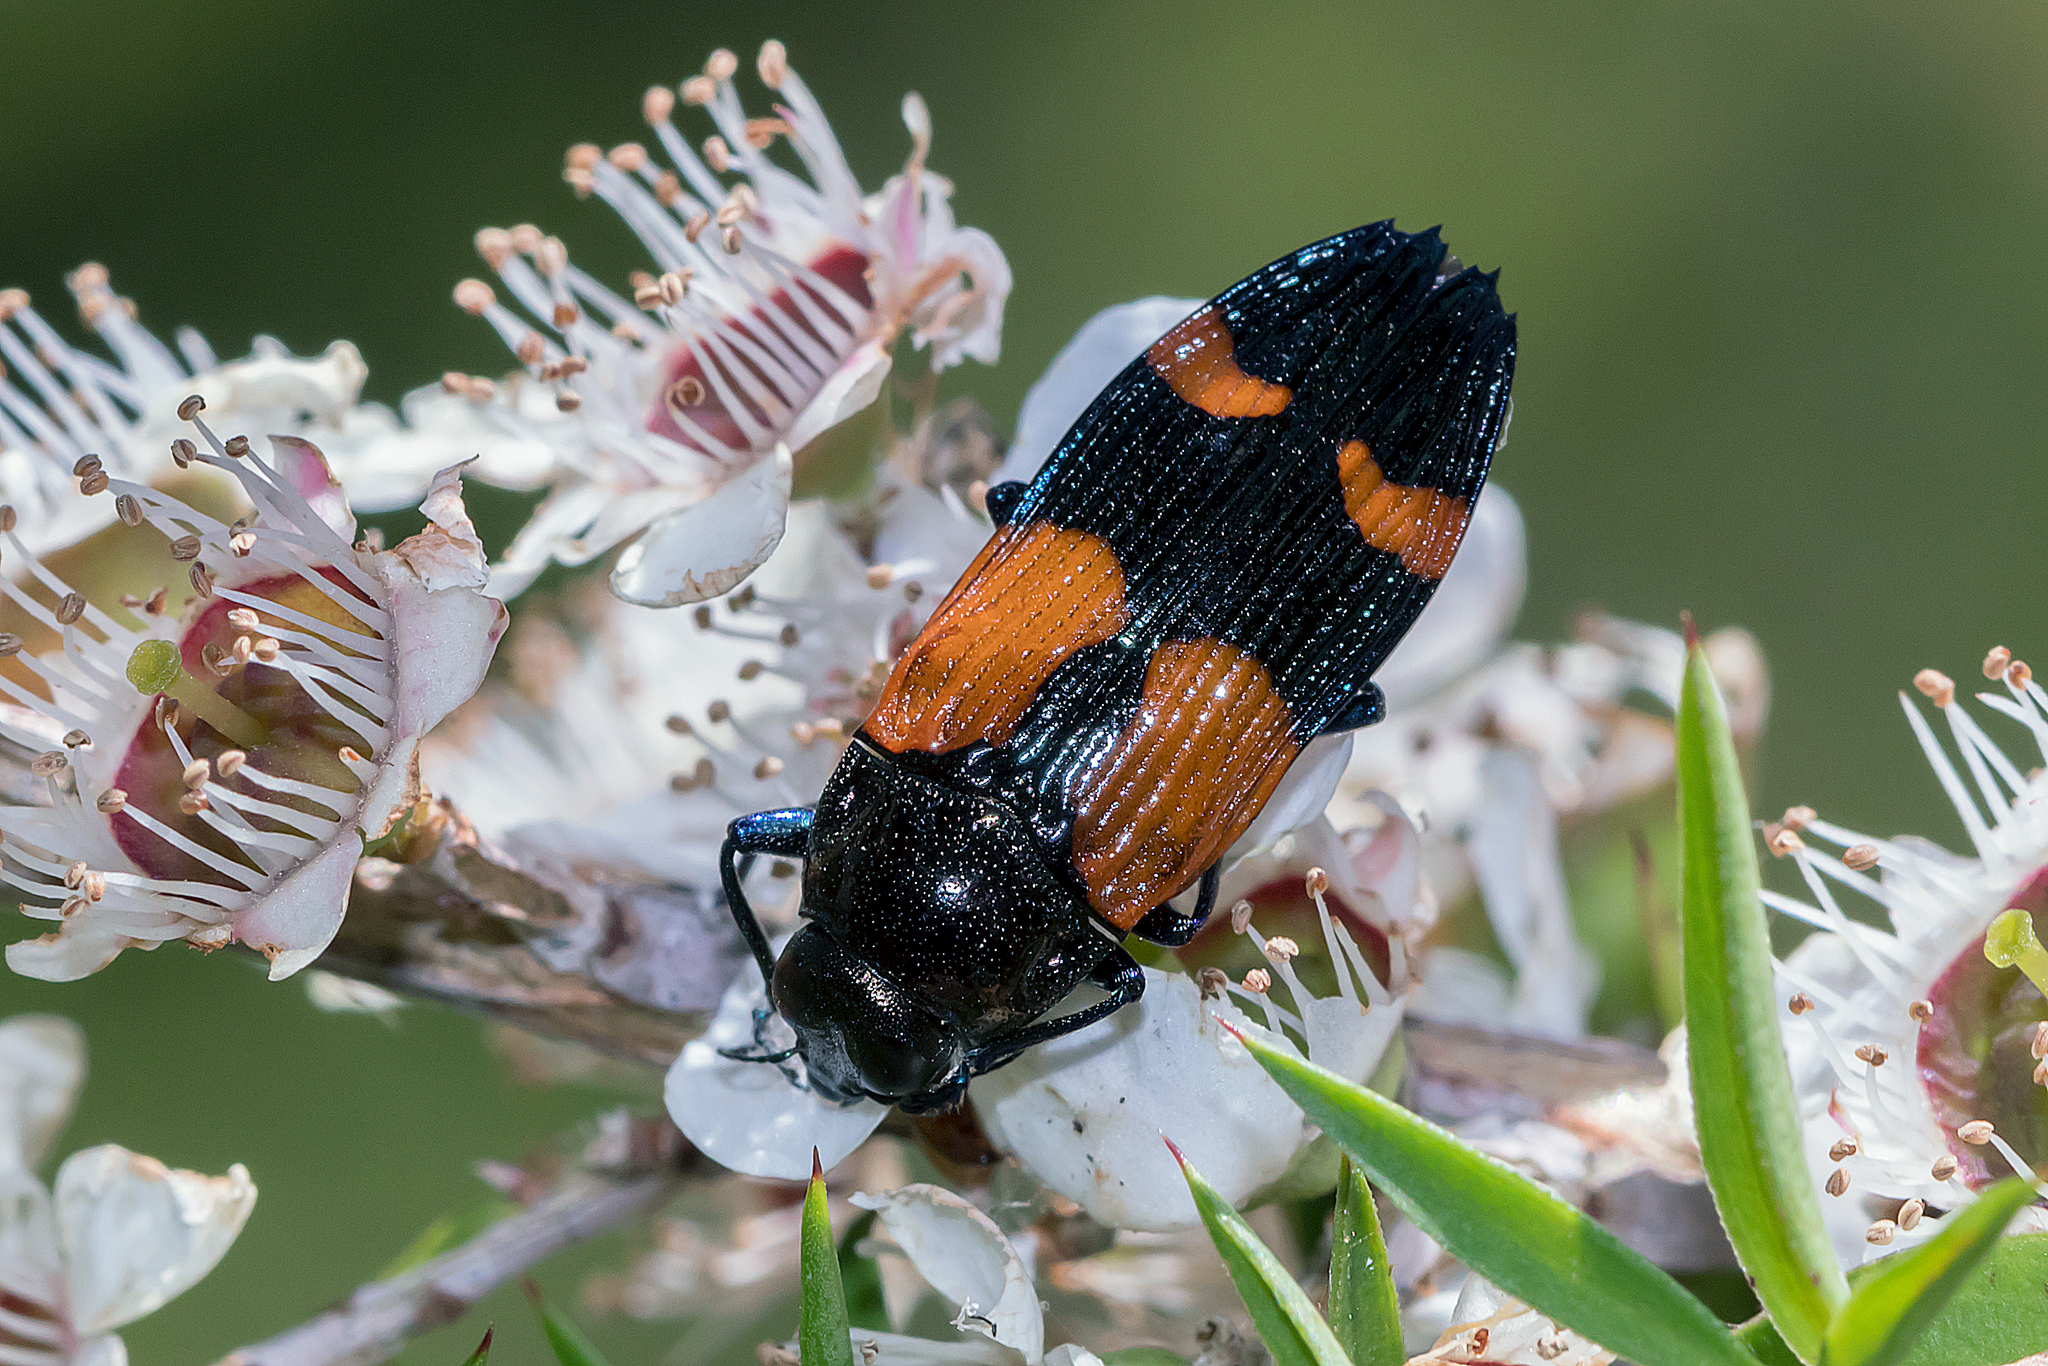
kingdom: Animalia
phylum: Arthropoda
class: Insecta
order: Coleoptera
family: Buprestidae
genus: Castiarina
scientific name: Castiarina pulchripes
